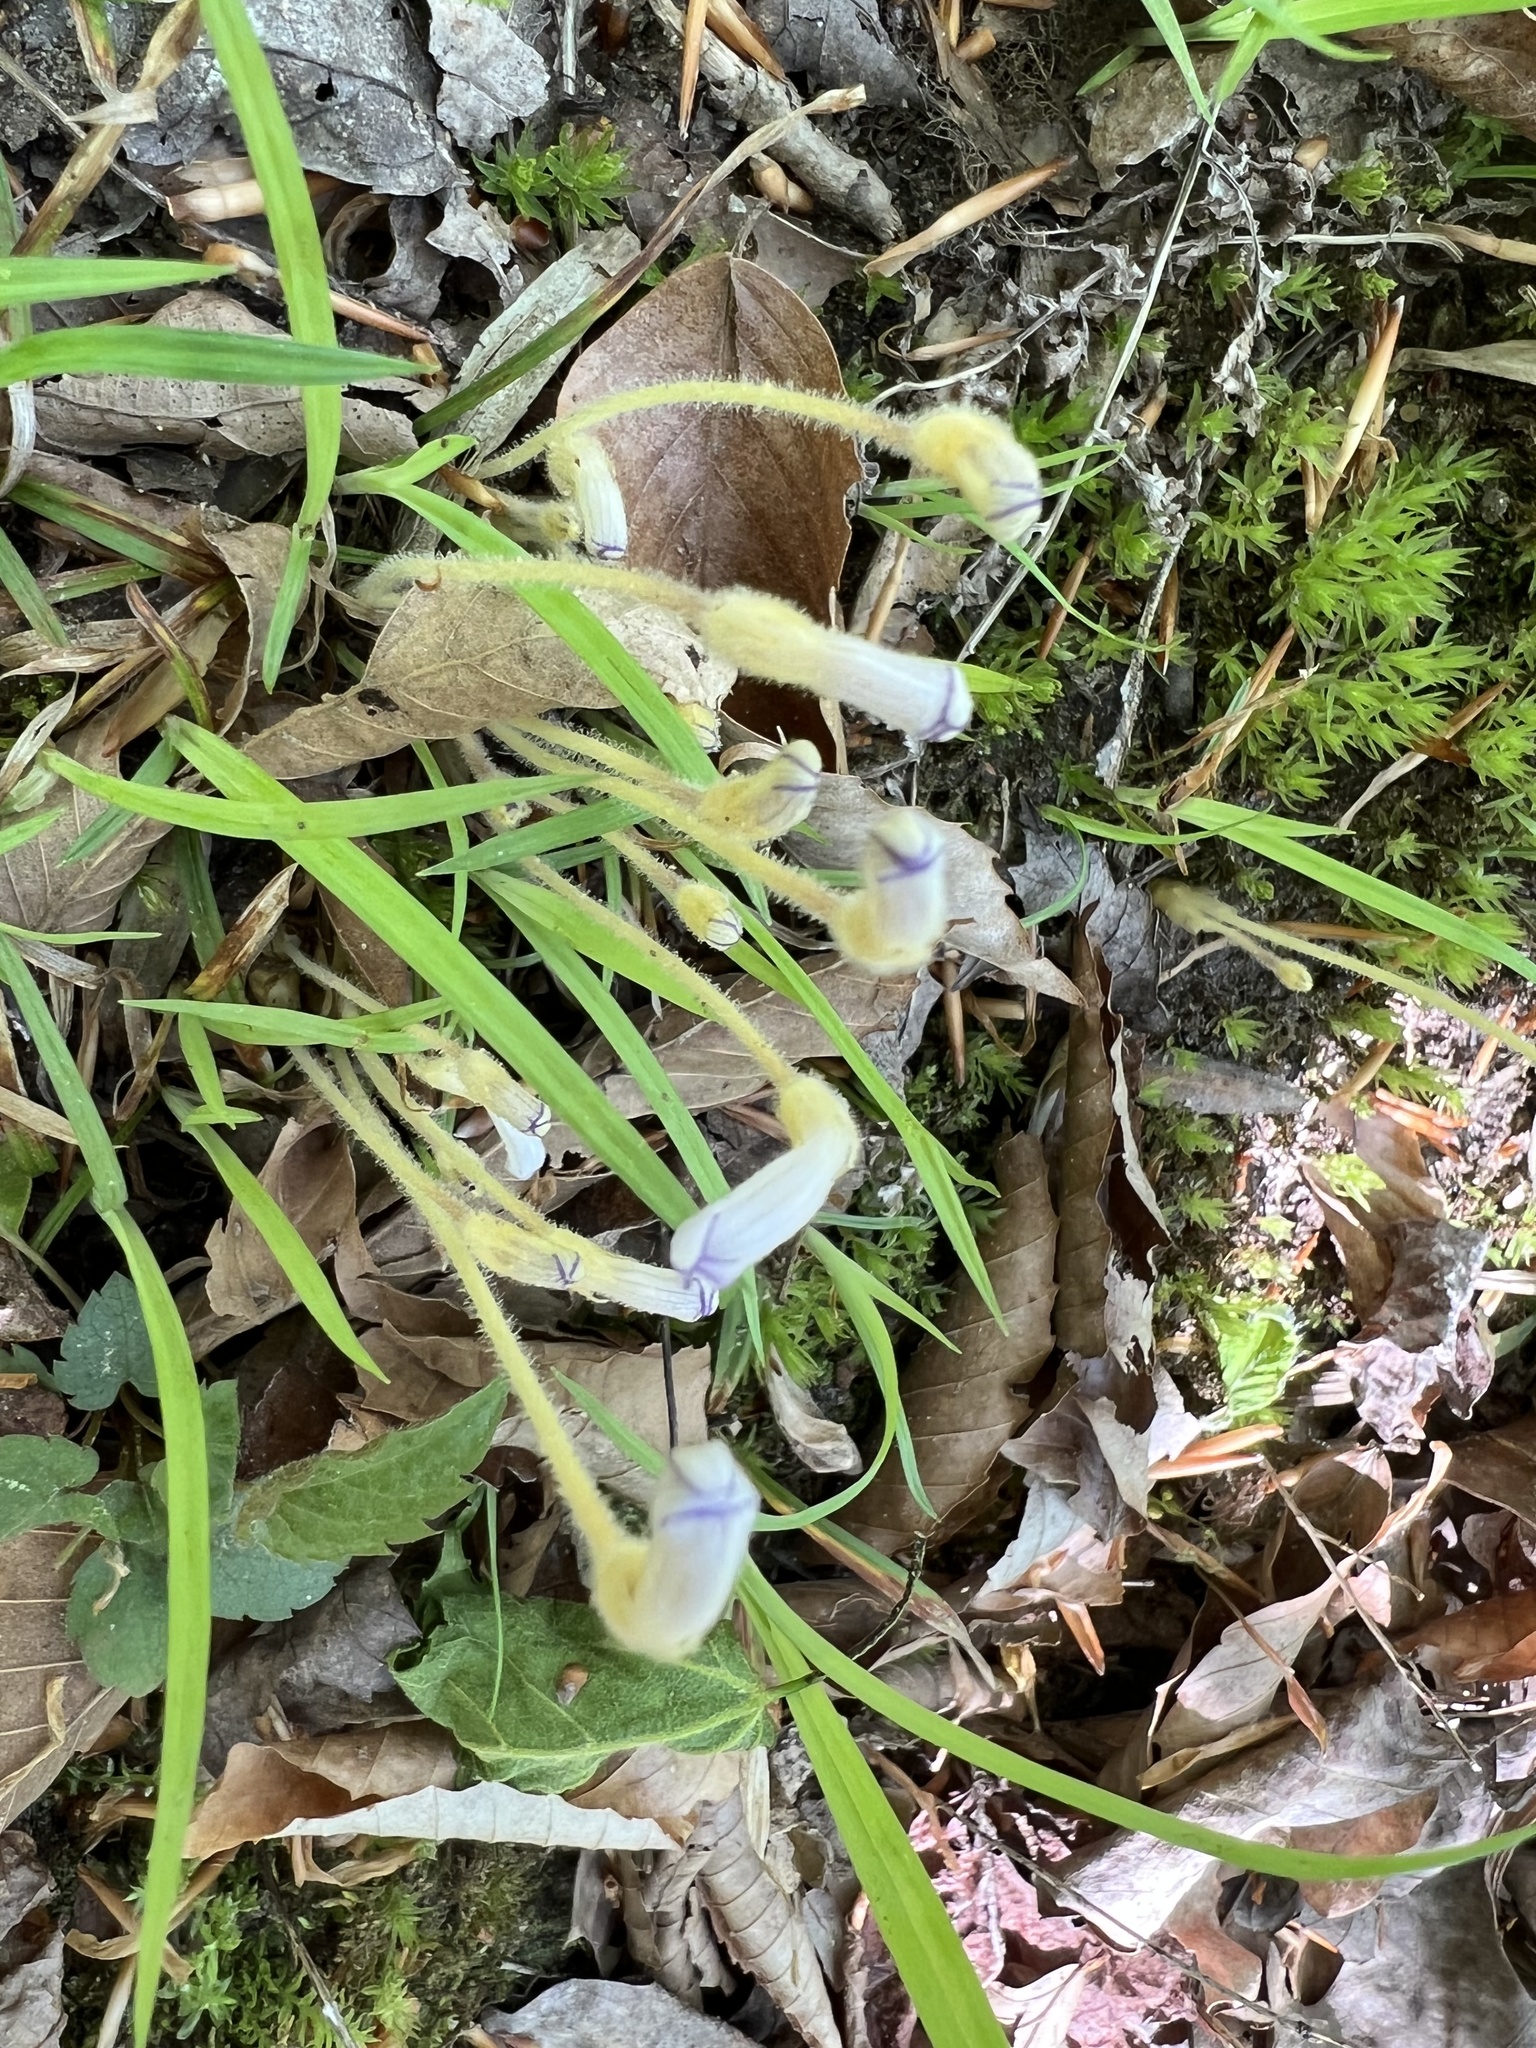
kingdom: Plantae
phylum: Tracheophyta
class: Magnoliopsida
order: Lamiales
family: Orobanchaceae
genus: Aphyllon
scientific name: Aphyllon uniflorum
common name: One-flowered broomrape
